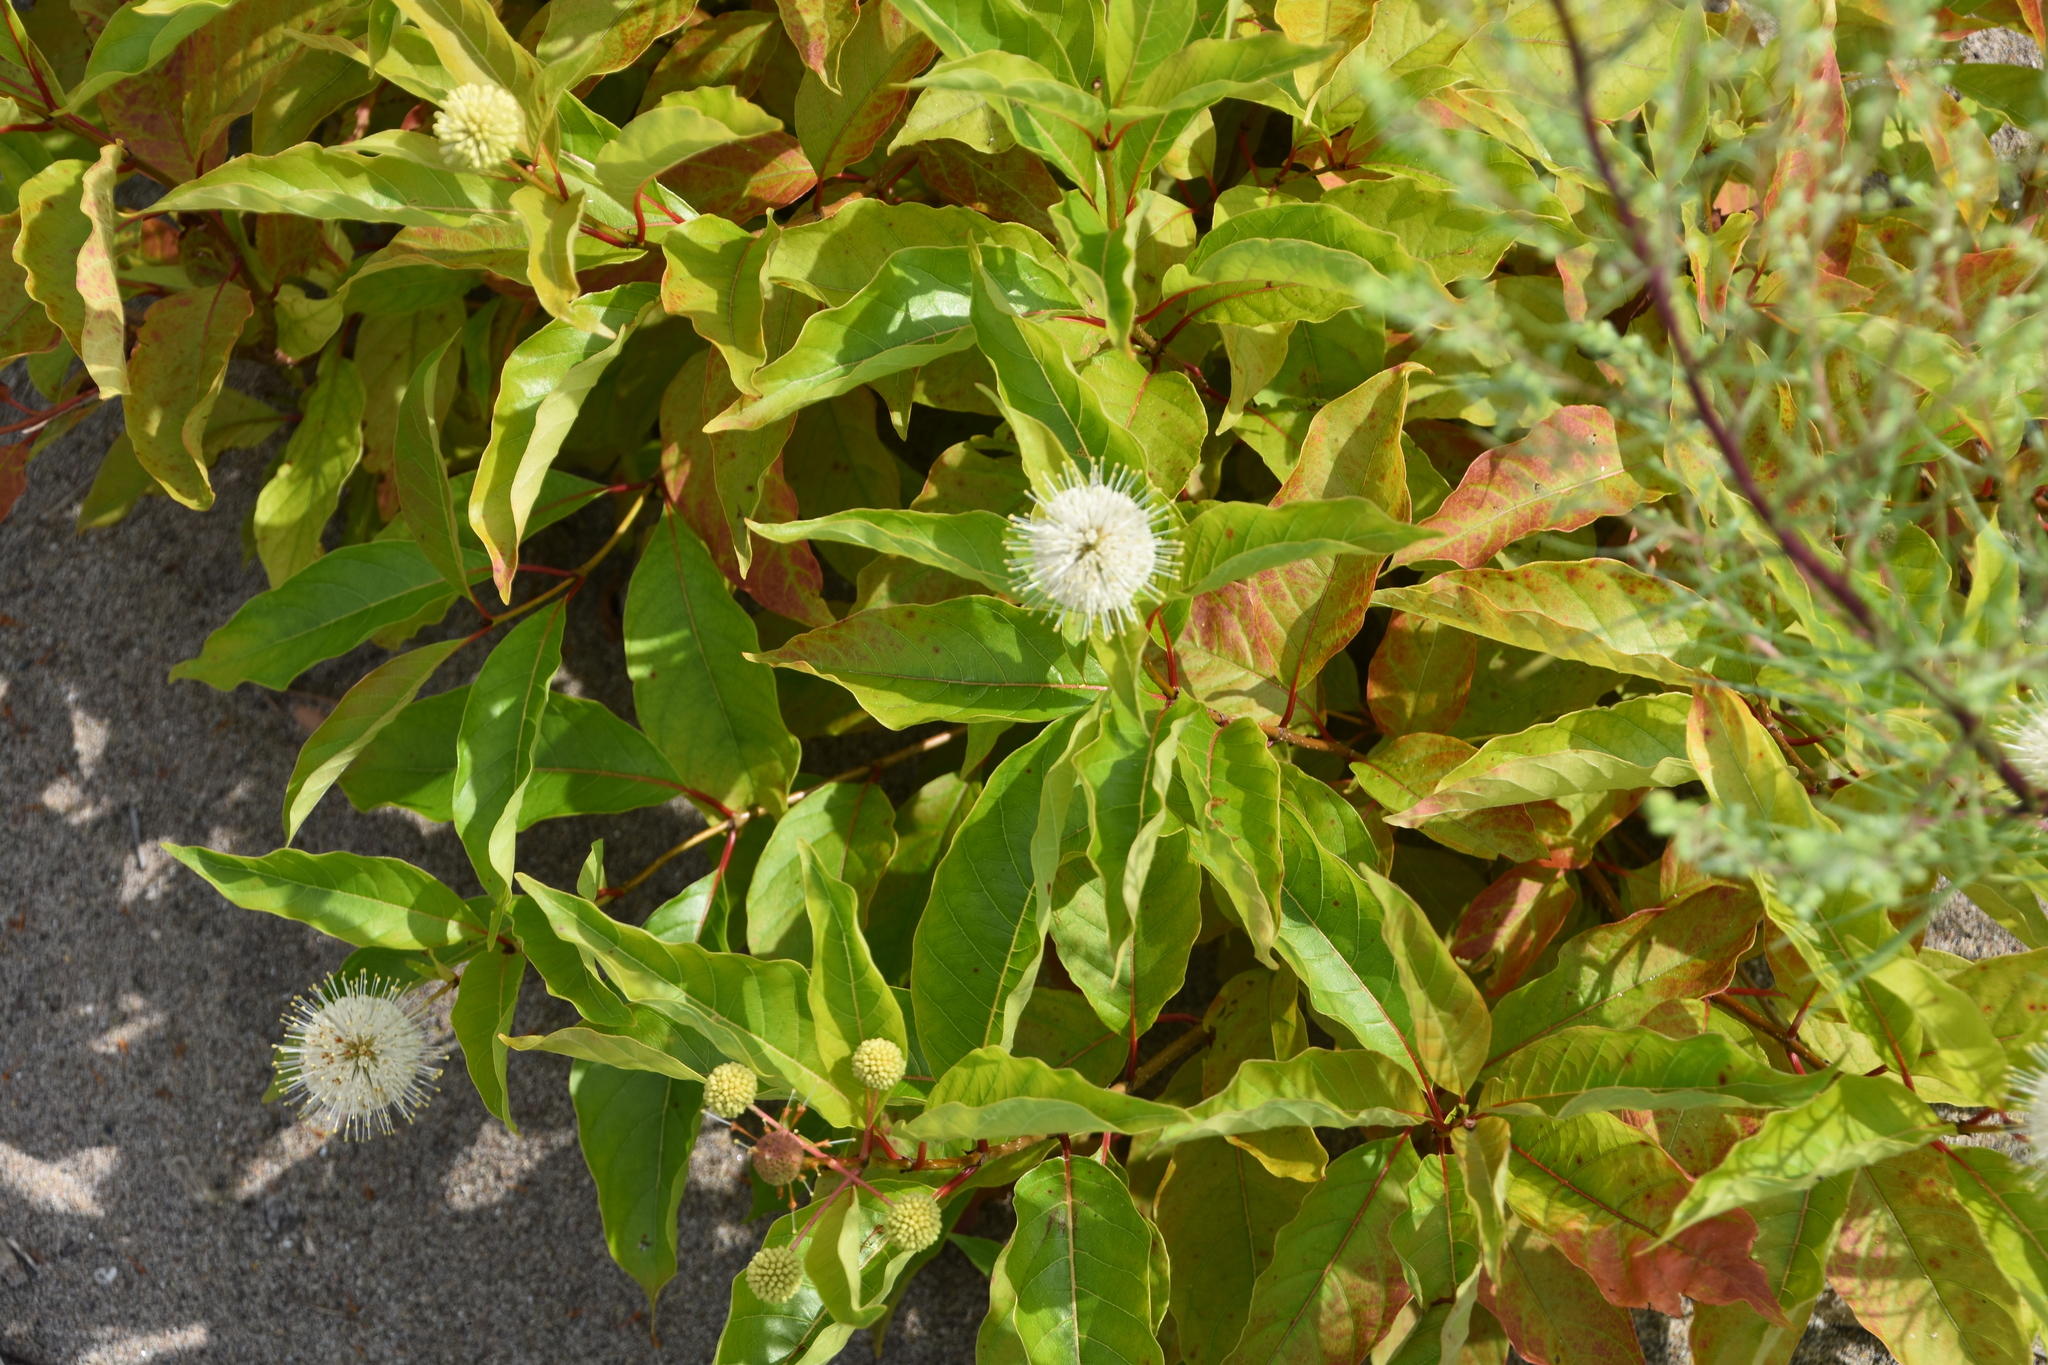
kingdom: Plantae
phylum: Tracheophyta
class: Magnoliopsida
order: Gentianales
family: Rubiaceae
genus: Cephalanthus
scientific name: Cephalanthus occidentalis
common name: Button-willow
